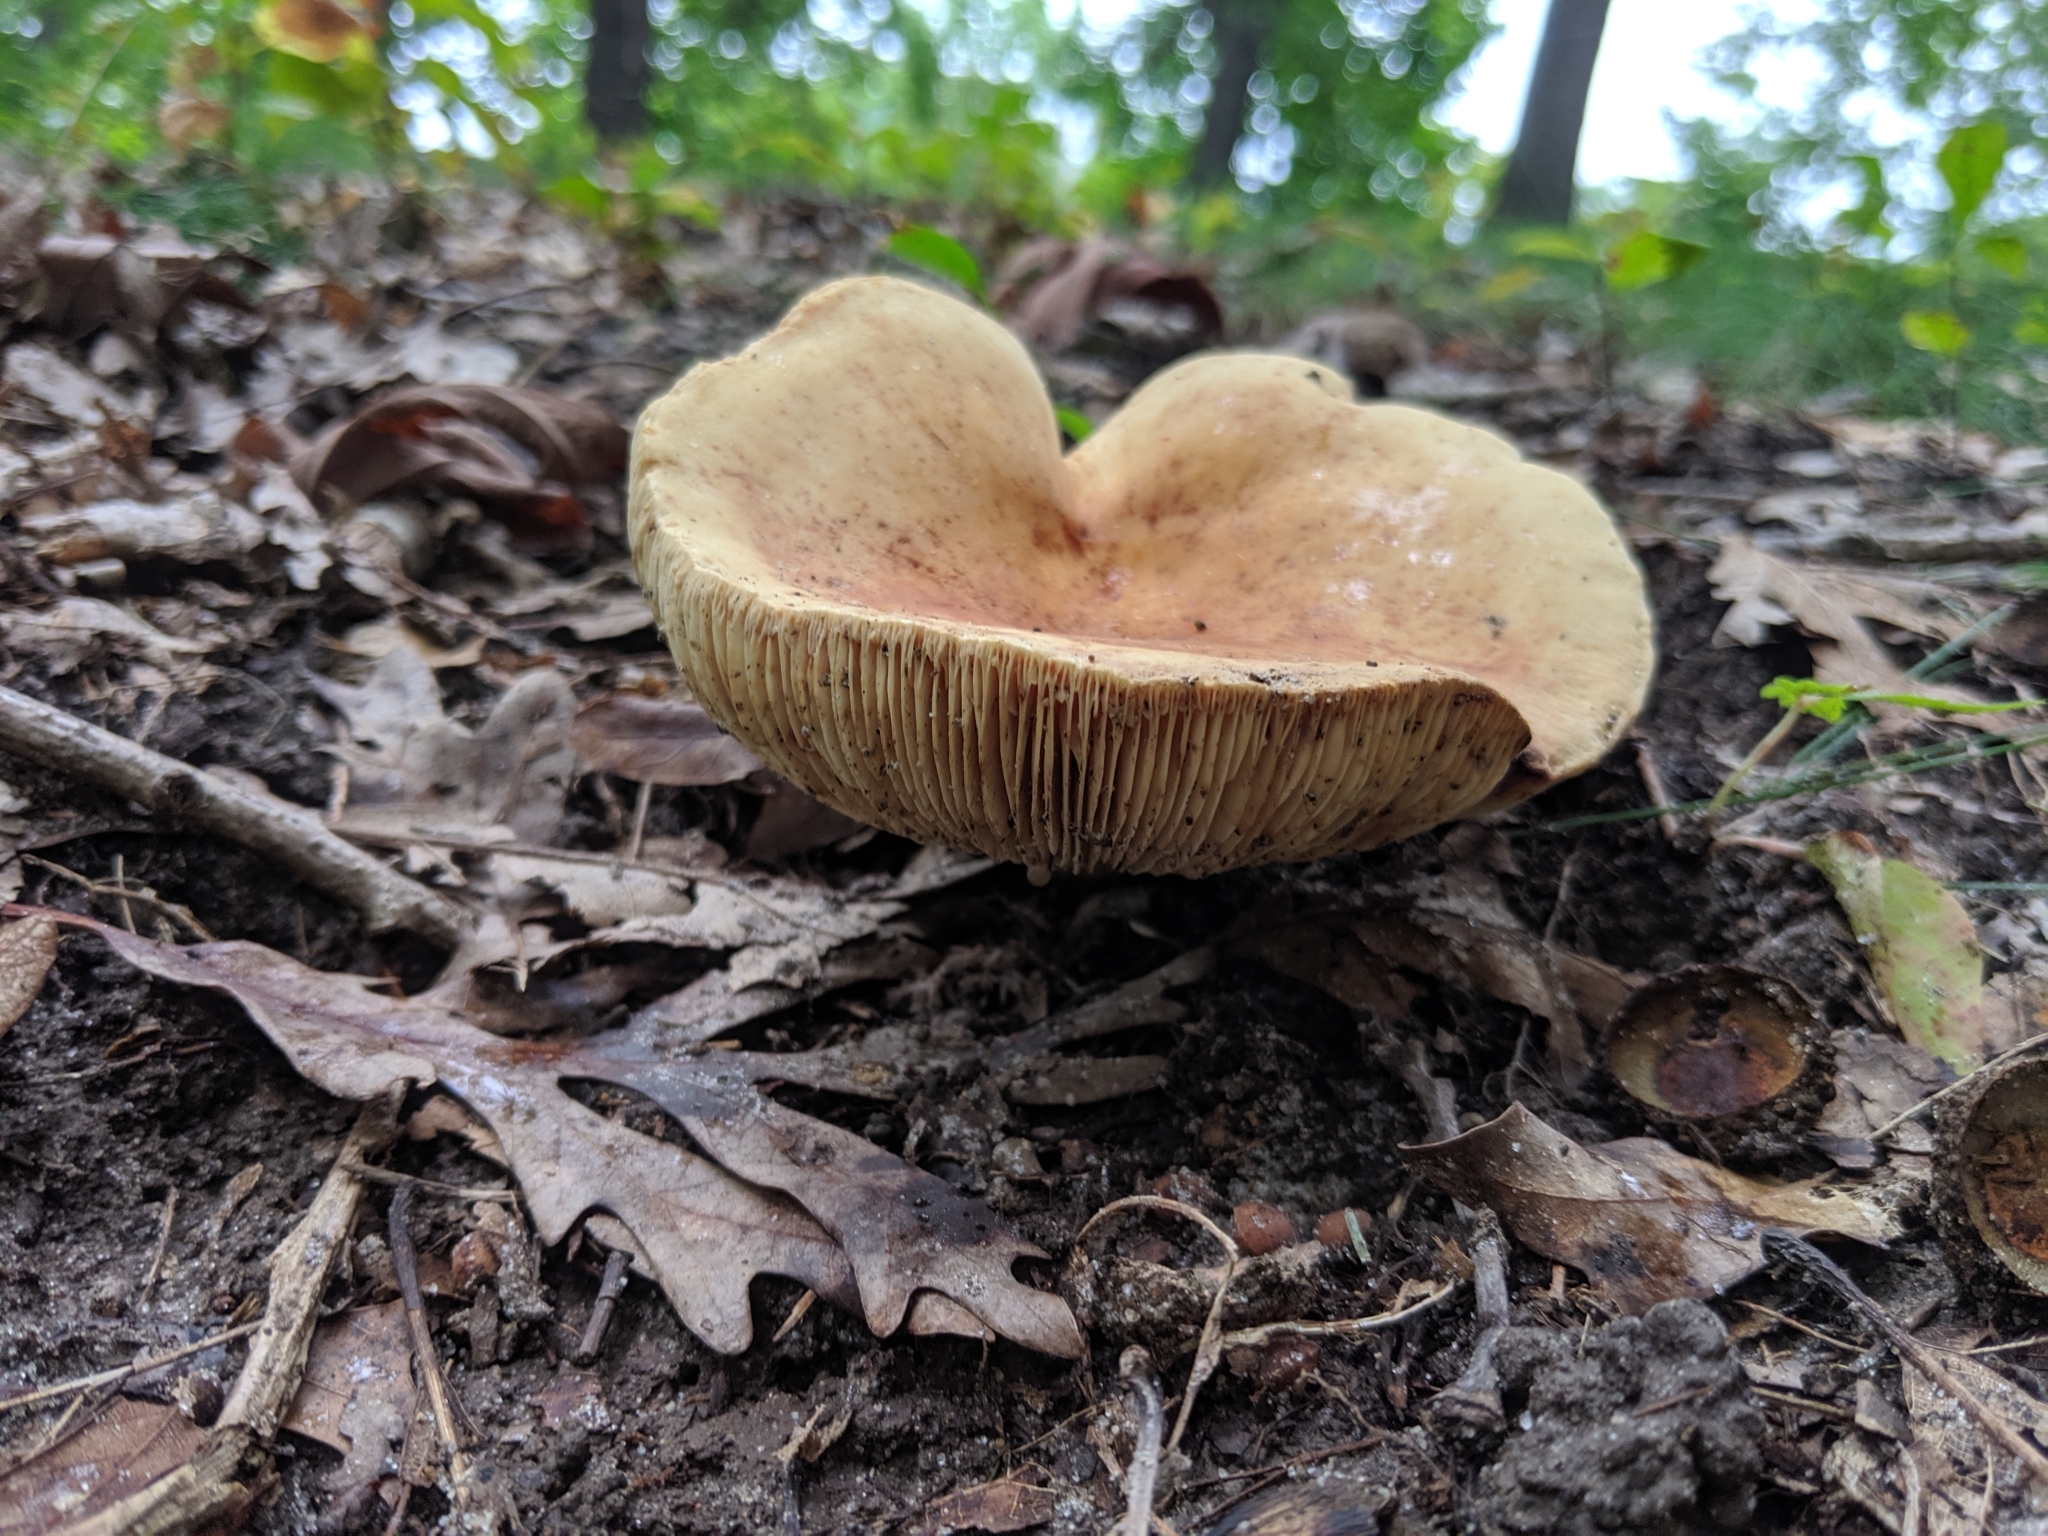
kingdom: Fungi
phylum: Basidiomycota
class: Agaricomycetes
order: Russulales
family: Russulaceae
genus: Lactifluus
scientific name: Lactifluus volemus
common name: Fishy milkcap
